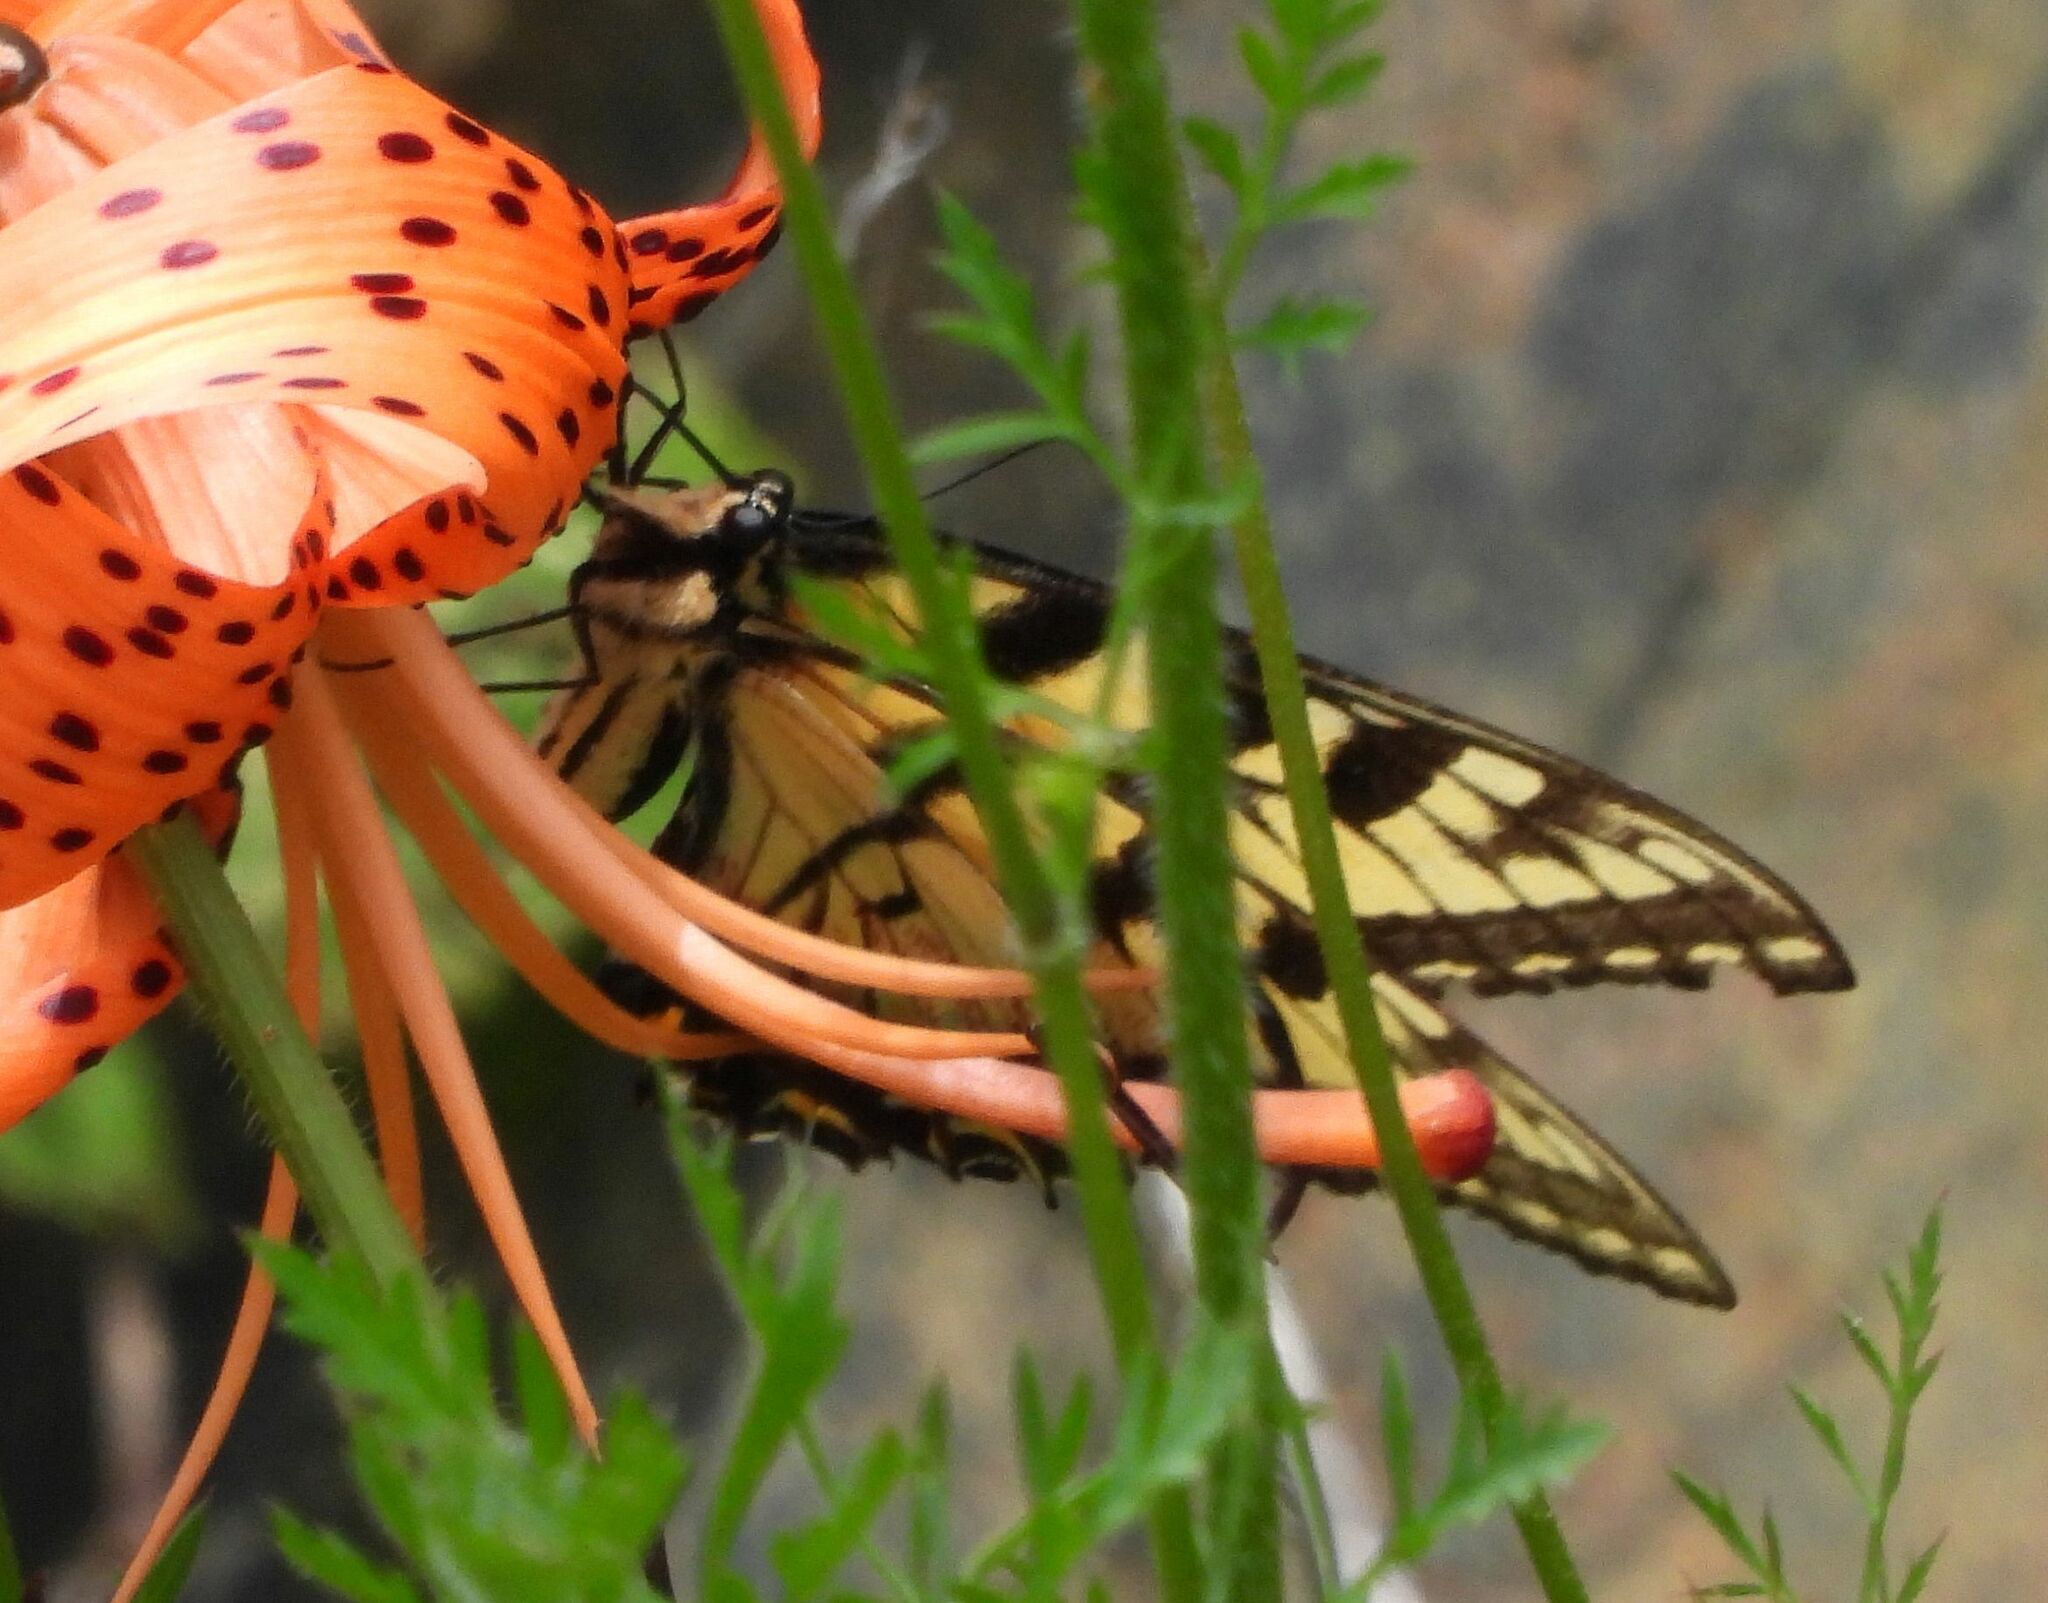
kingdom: Animalia
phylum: Arthropoda
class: Insecta
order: Lepidoptera
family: Papilionidae
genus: Papilio
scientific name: Papilio
